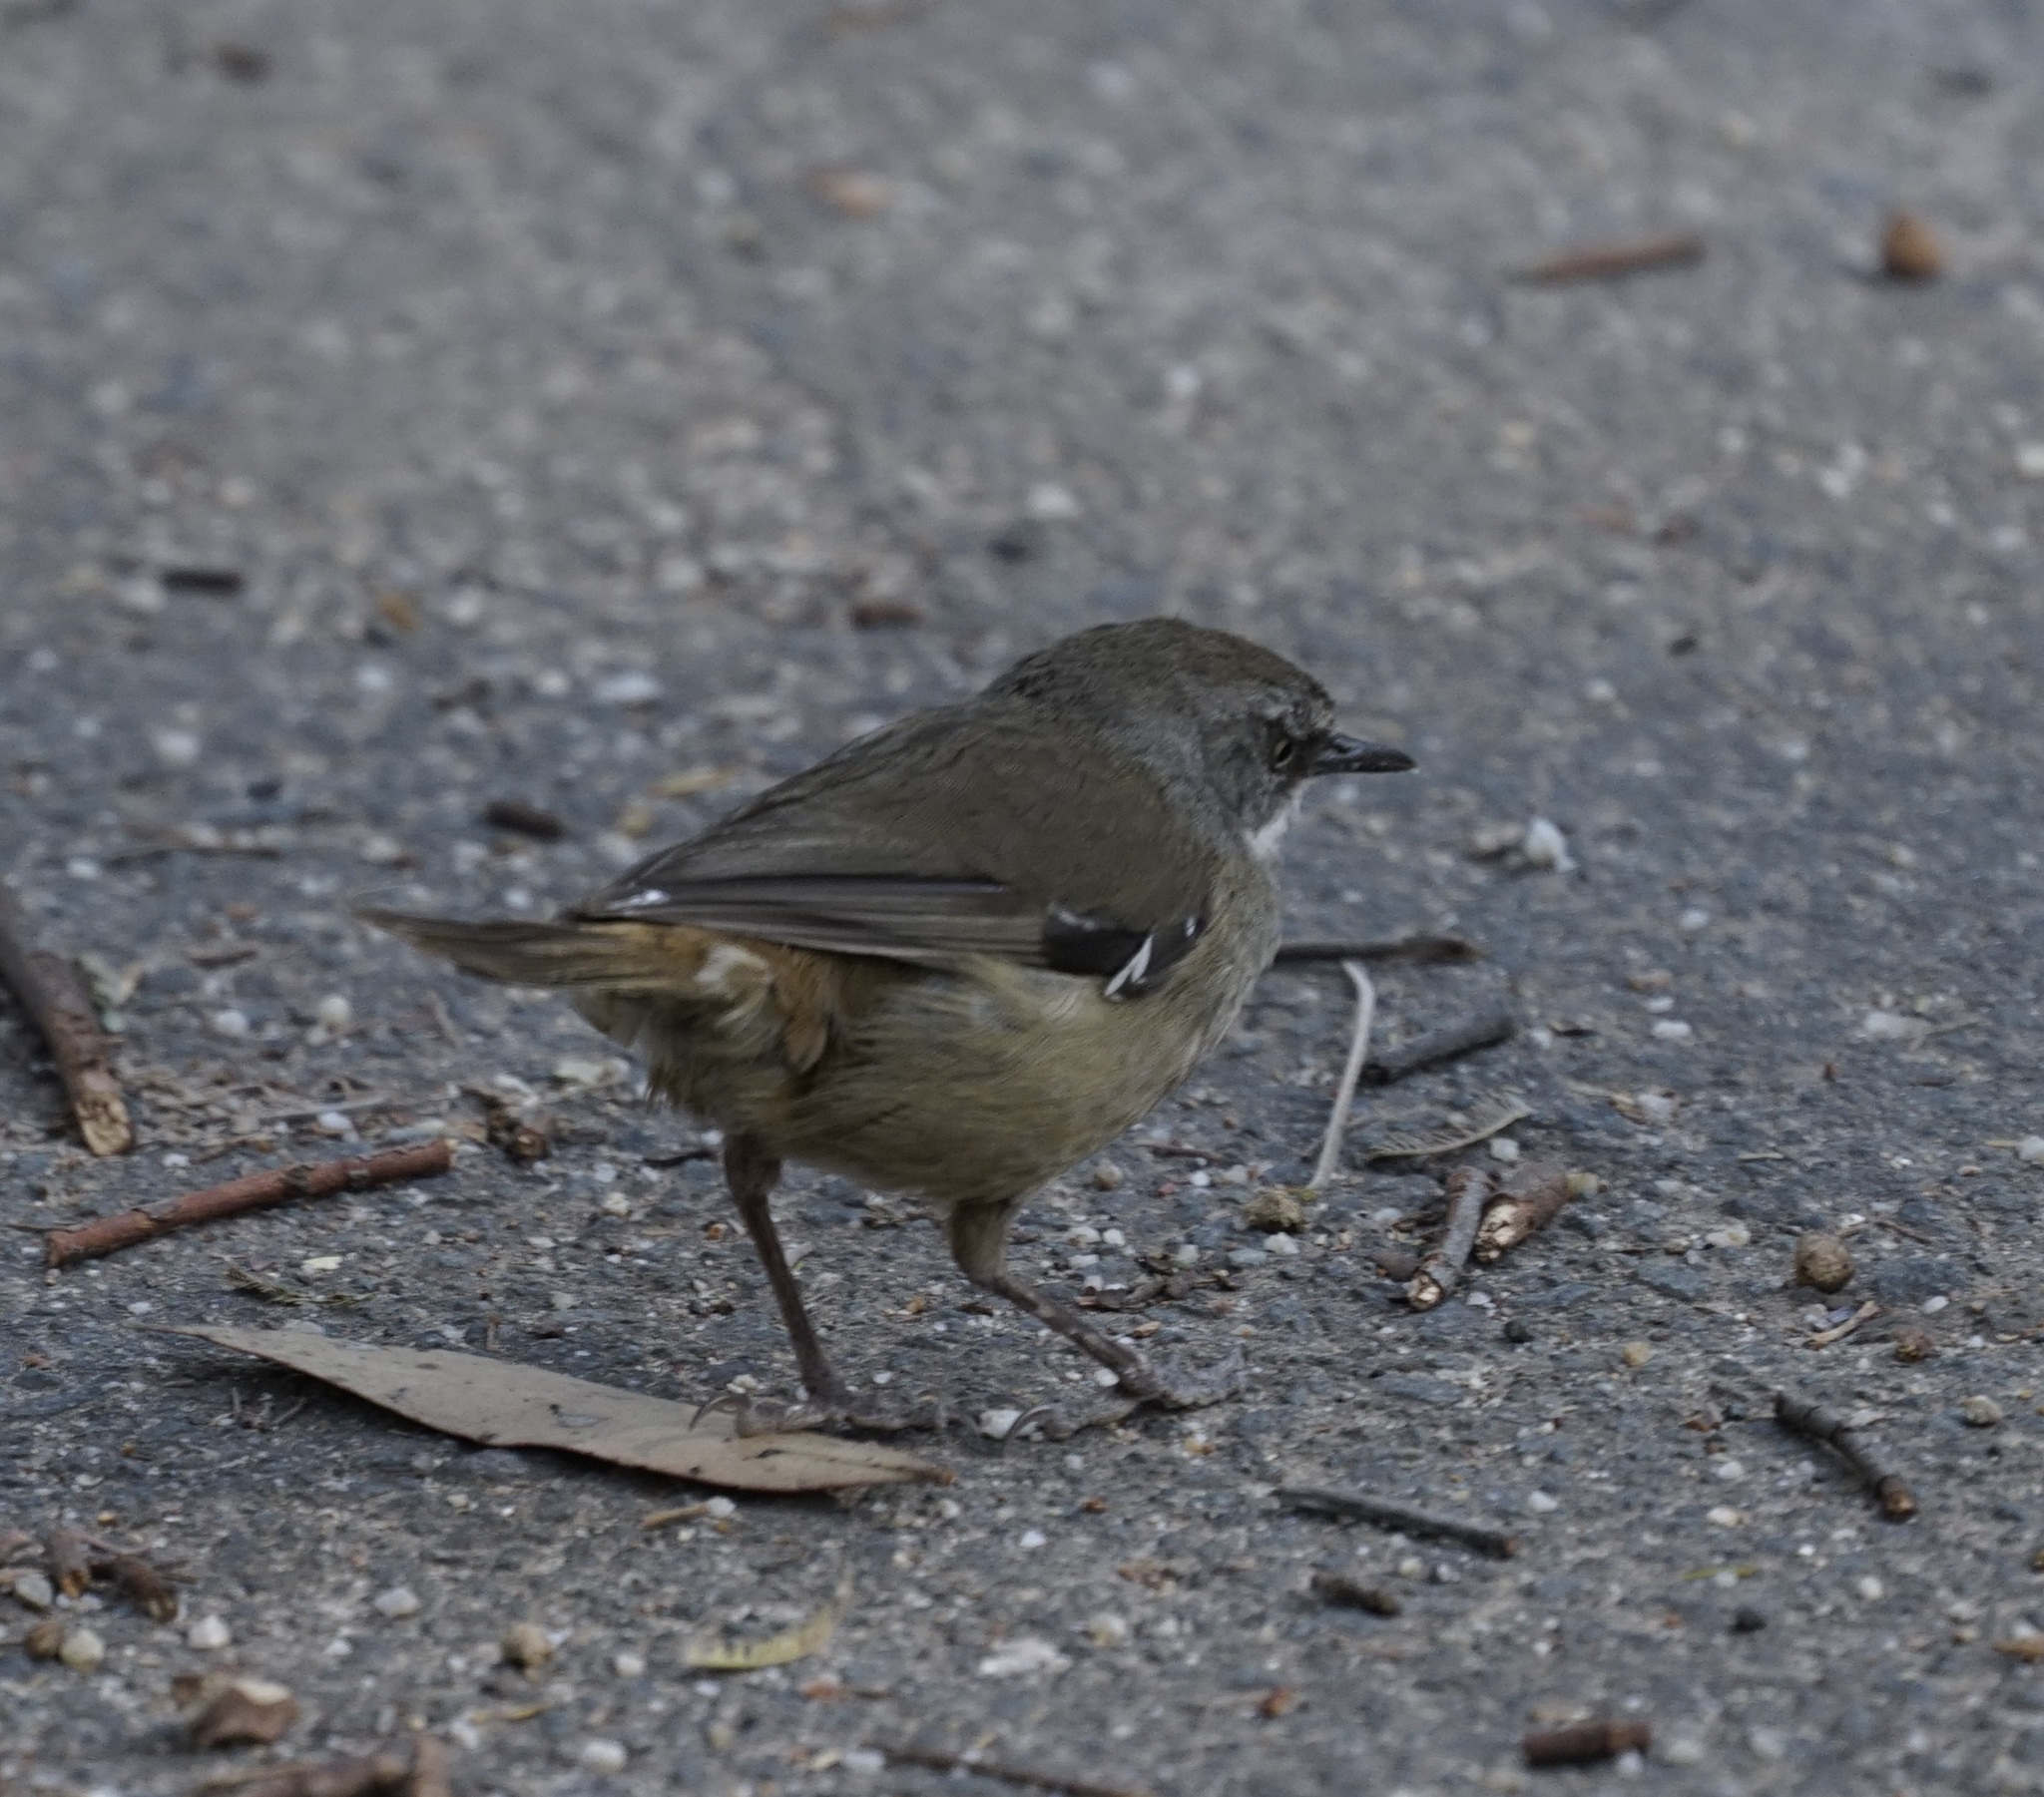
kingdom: Animalia
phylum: Chordata
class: Aves
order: Passeriformes
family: Acanthizidae
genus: Sericornis
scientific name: Sericornis frontalis
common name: White-browed scrubwren
